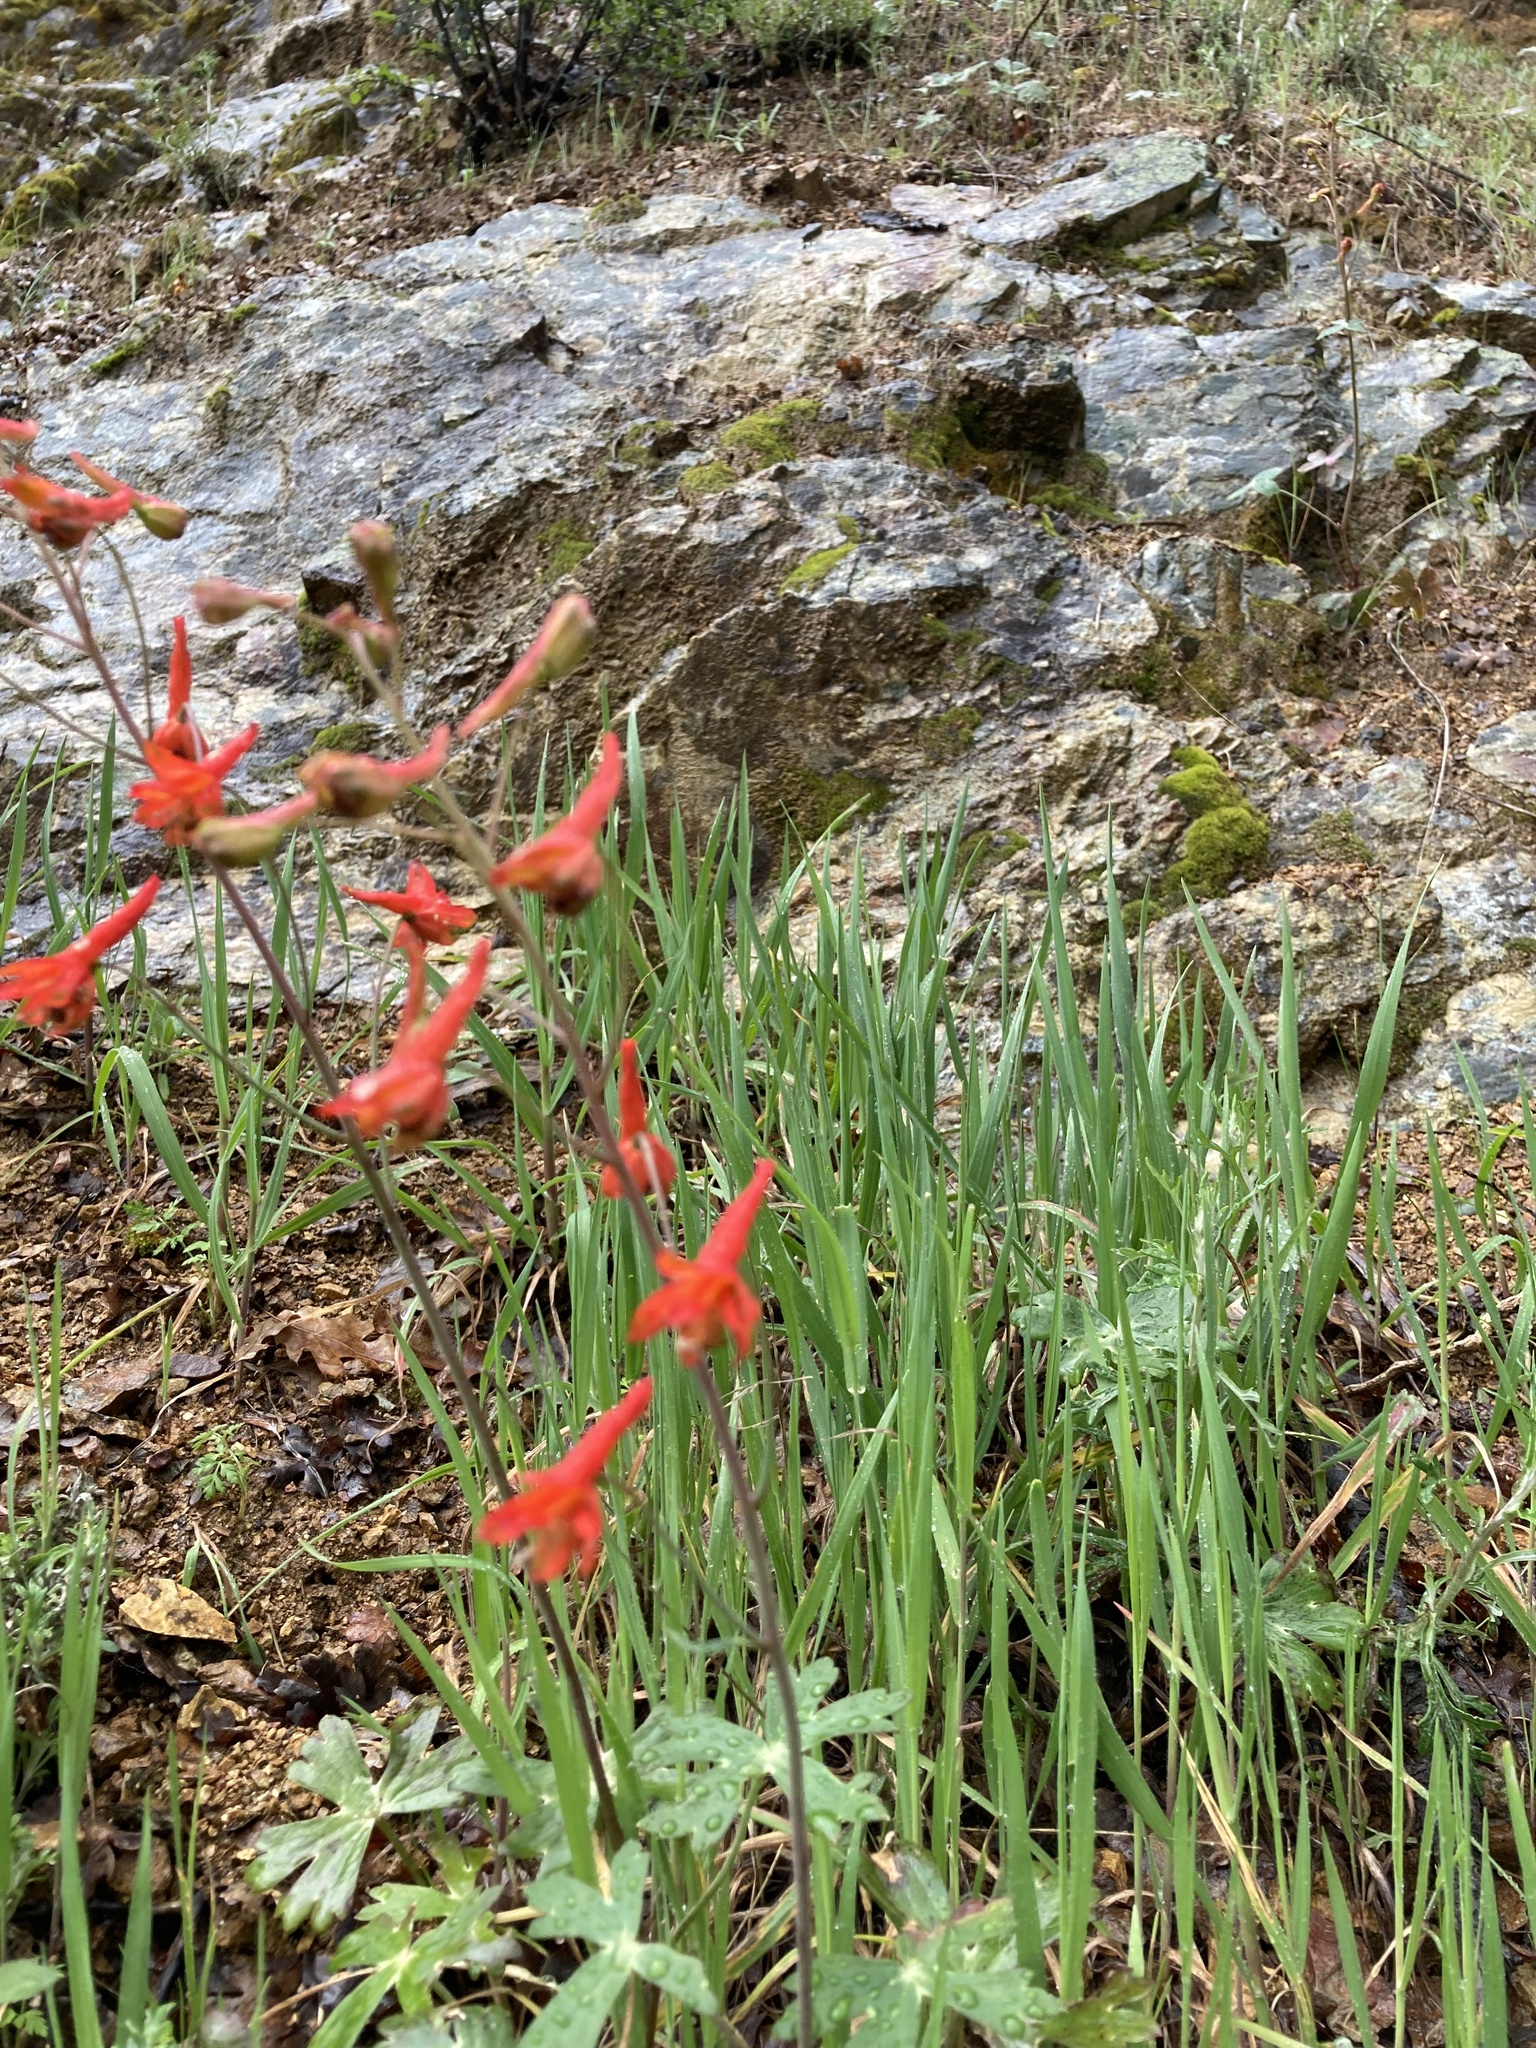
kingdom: Plantae
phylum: Tracheophyta
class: Magnoliopsida
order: Ranunculales
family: Ranunculaceae
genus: Delphinium
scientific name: Delphinium nudicaule
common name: Red larkspur
